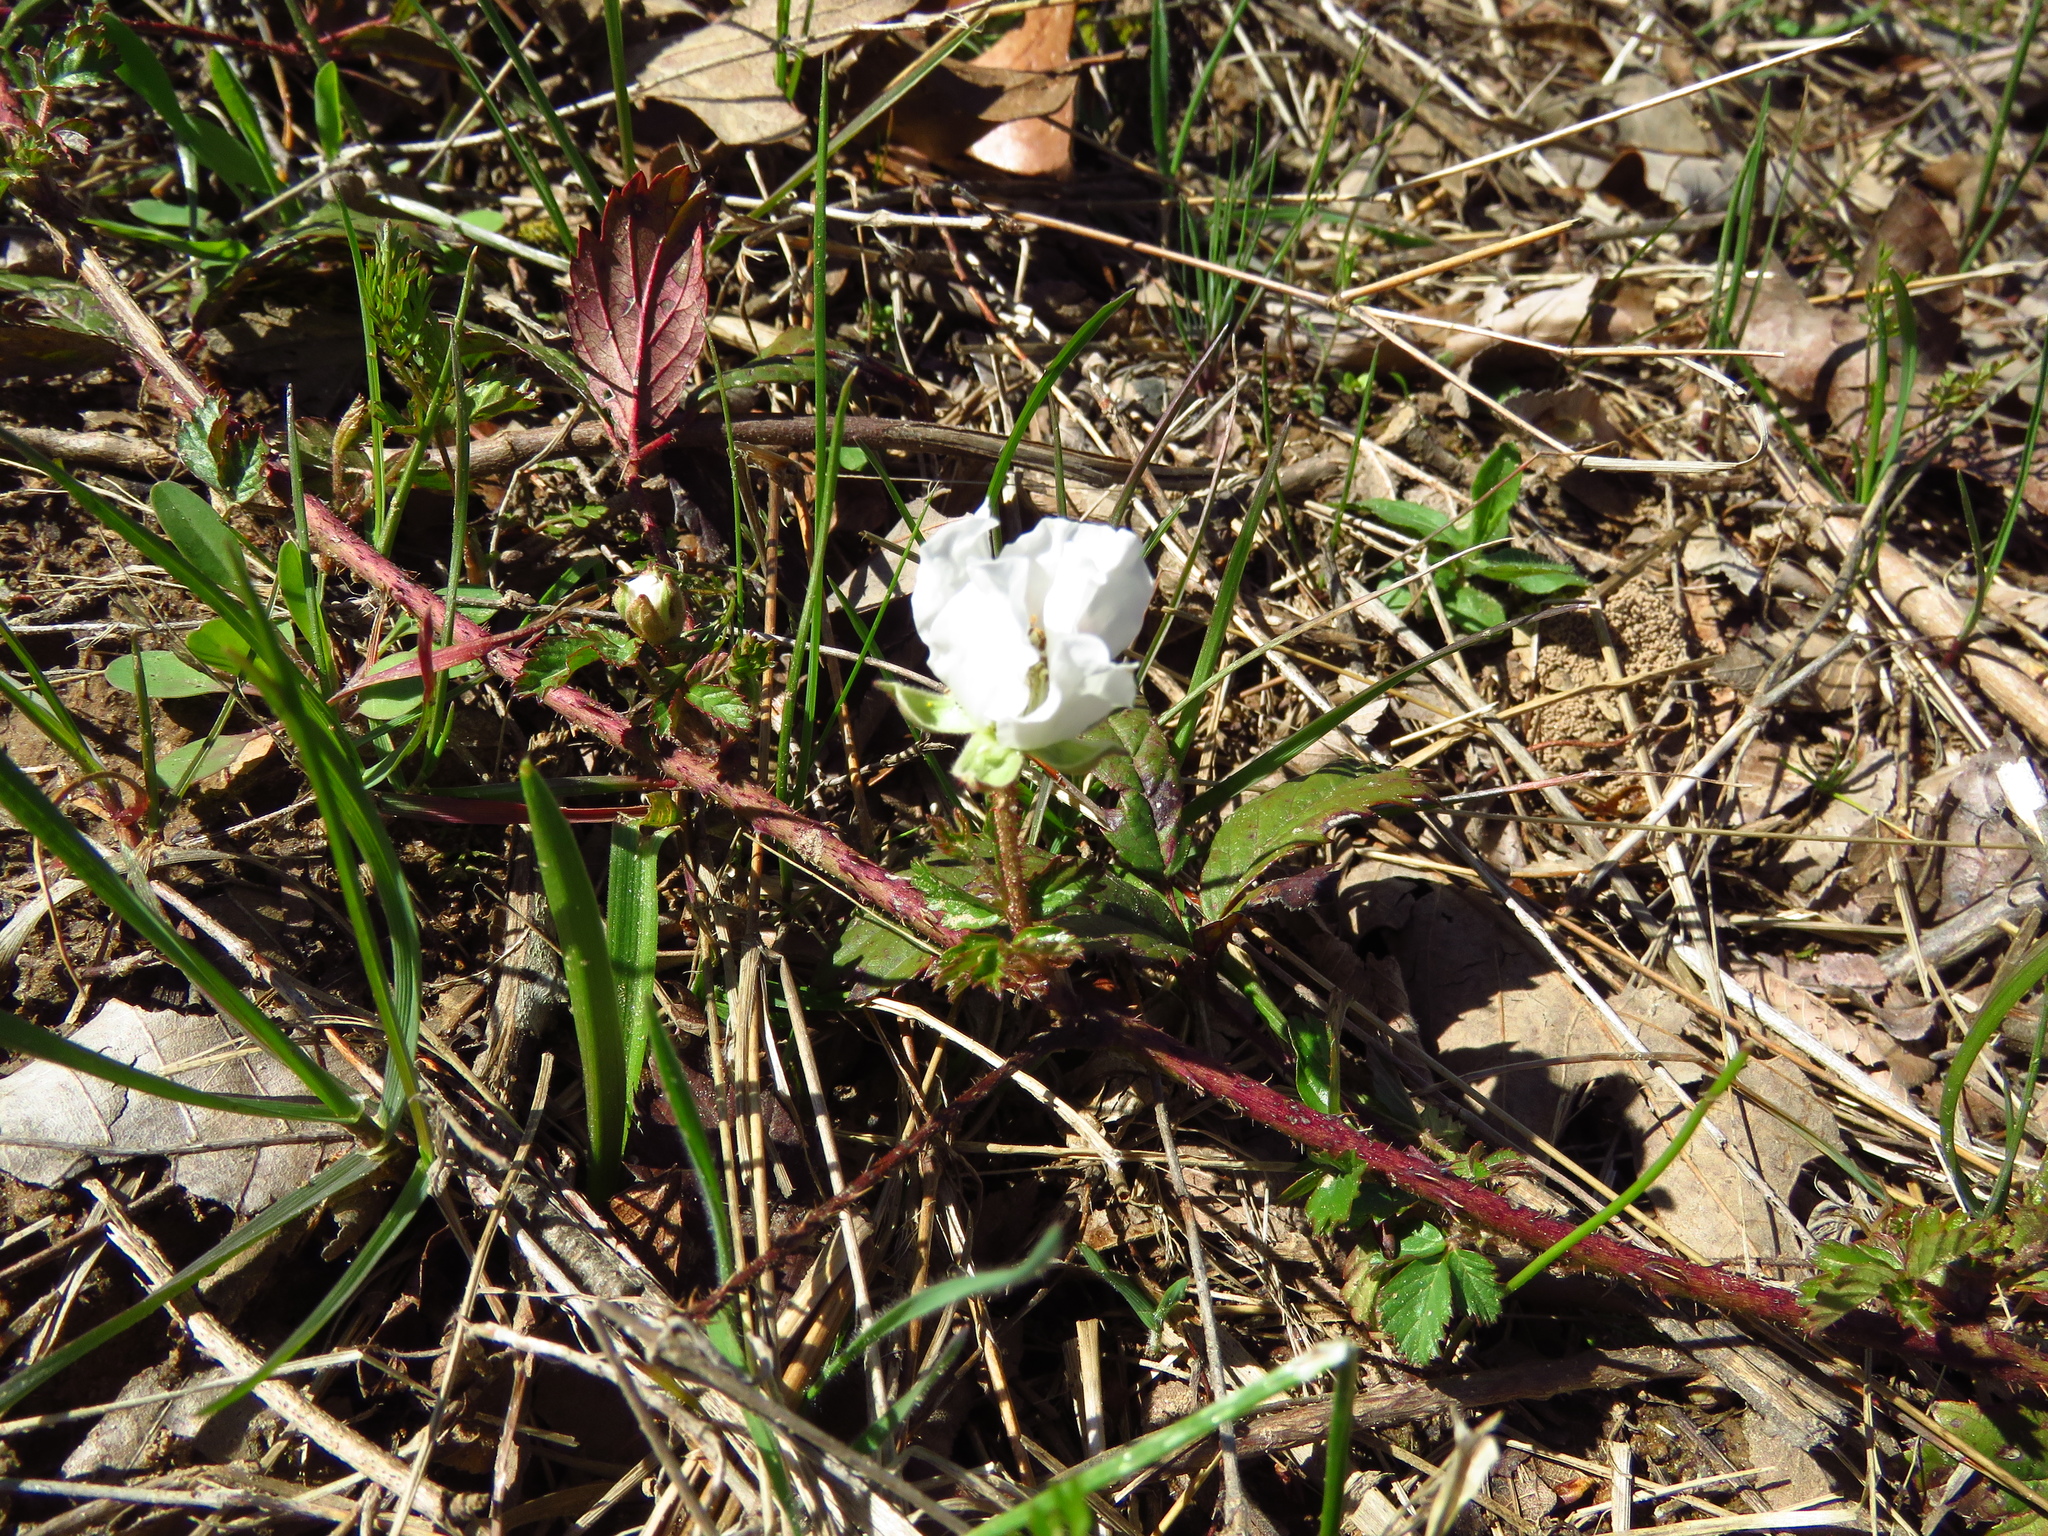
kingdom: Plantae
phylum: Tracheophyta
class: Magnoliopsida
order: Rosales
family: Rosaceae
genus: Rubus
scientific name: Rubus trivialis
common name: Southern dewberry
